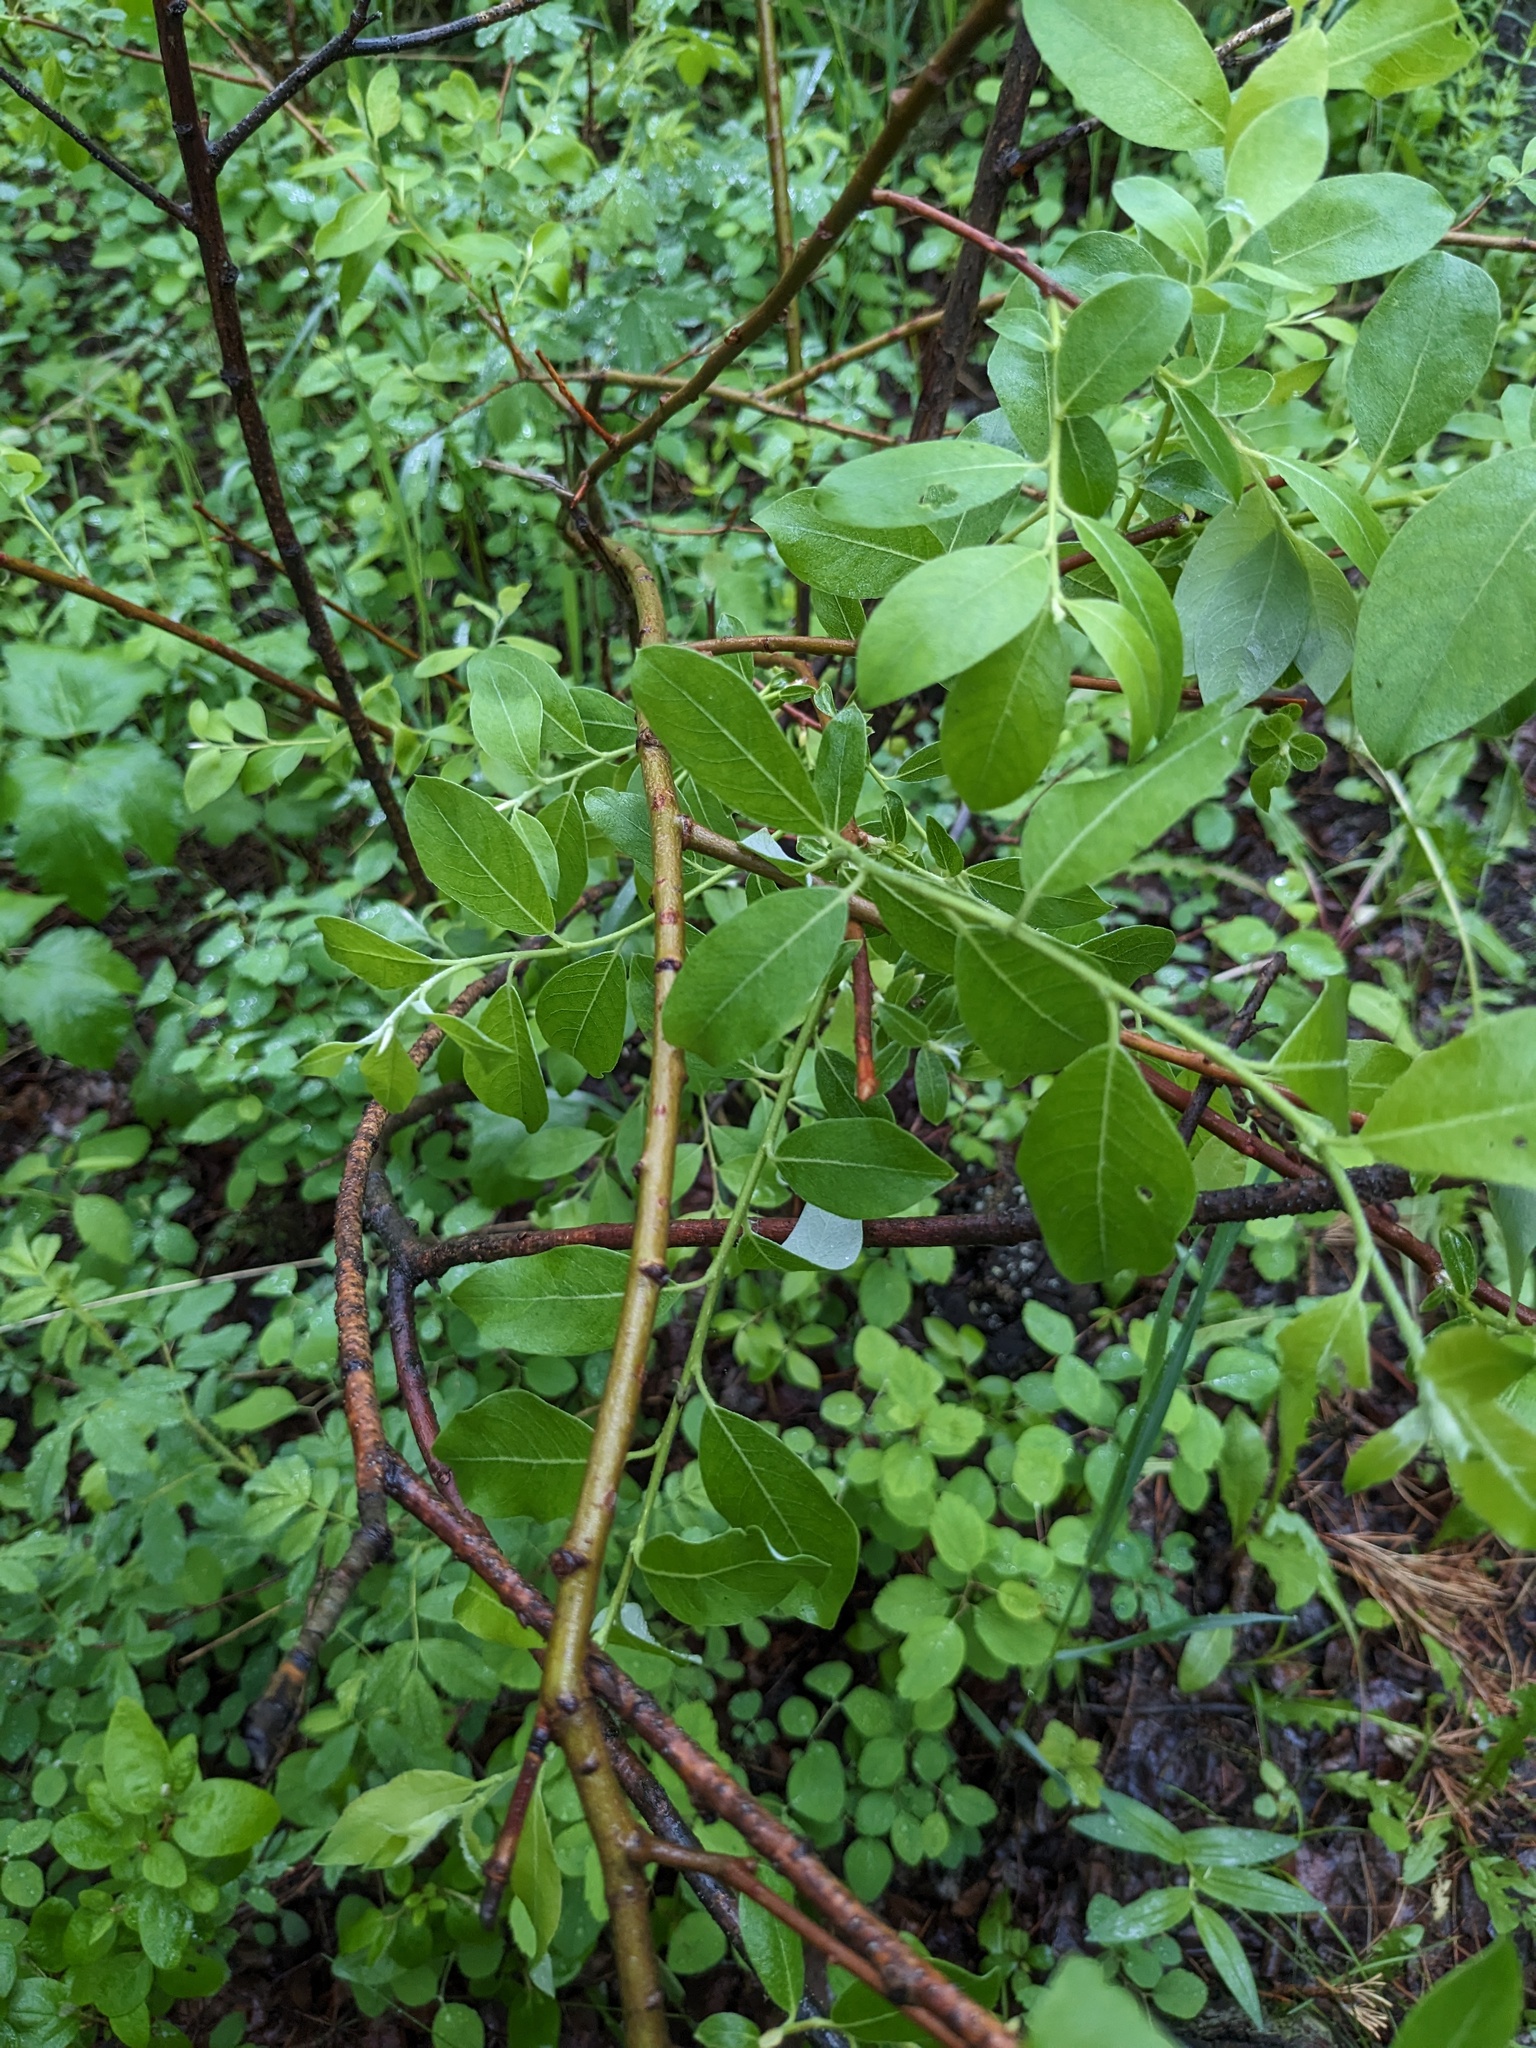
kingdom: Plantae
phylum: Tracheophyta
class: Magnoliopsida
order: Malpighiales
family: Salicaceae
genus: Salix
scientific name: Salix bebbiana
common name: Bebb's willow
